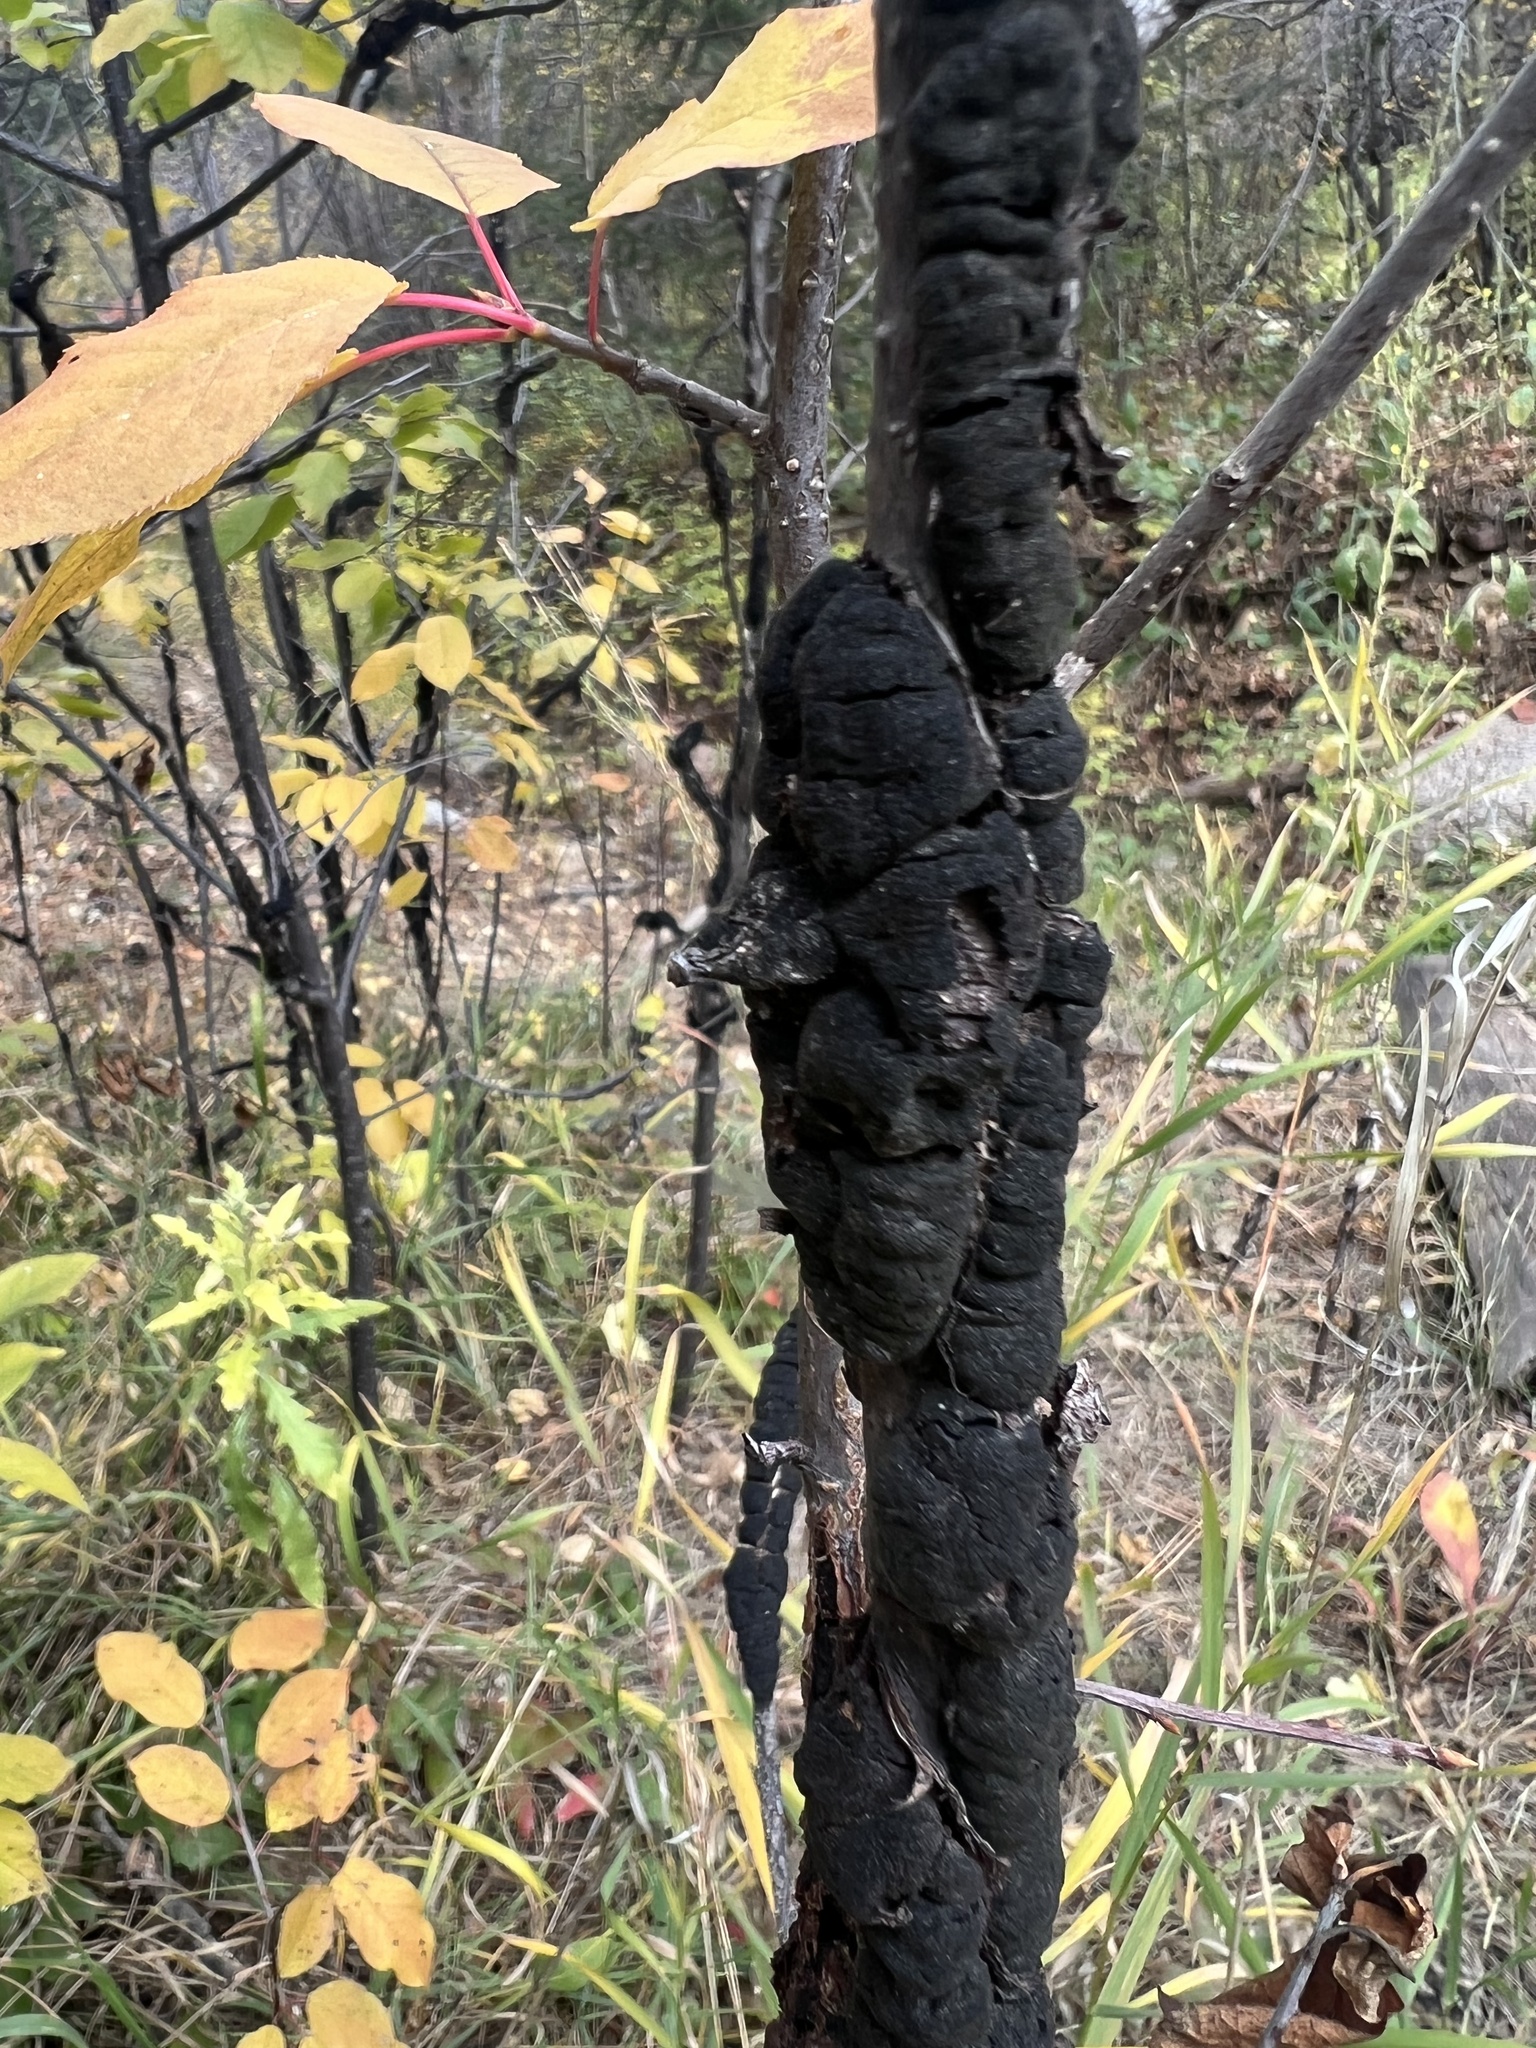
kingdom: Fungi
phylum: Ascomycota
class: Dothideomycetes
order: Venturiales
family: Venturiaceae
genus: Apiosporina
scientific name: Apiosporina morbosa
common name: Black knot
